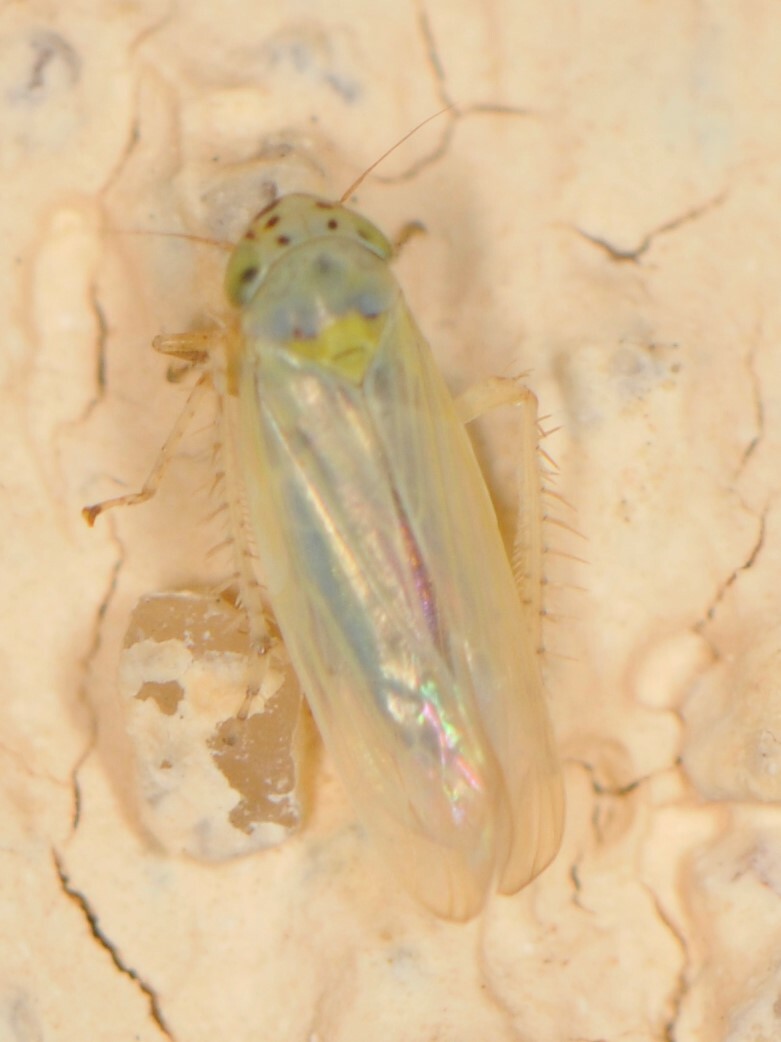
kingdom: Animalia
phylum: Arthropoda
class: Insecta
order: Hemiptera
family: Cicadellidae
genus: Macrosteles
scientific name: Macrosteles
